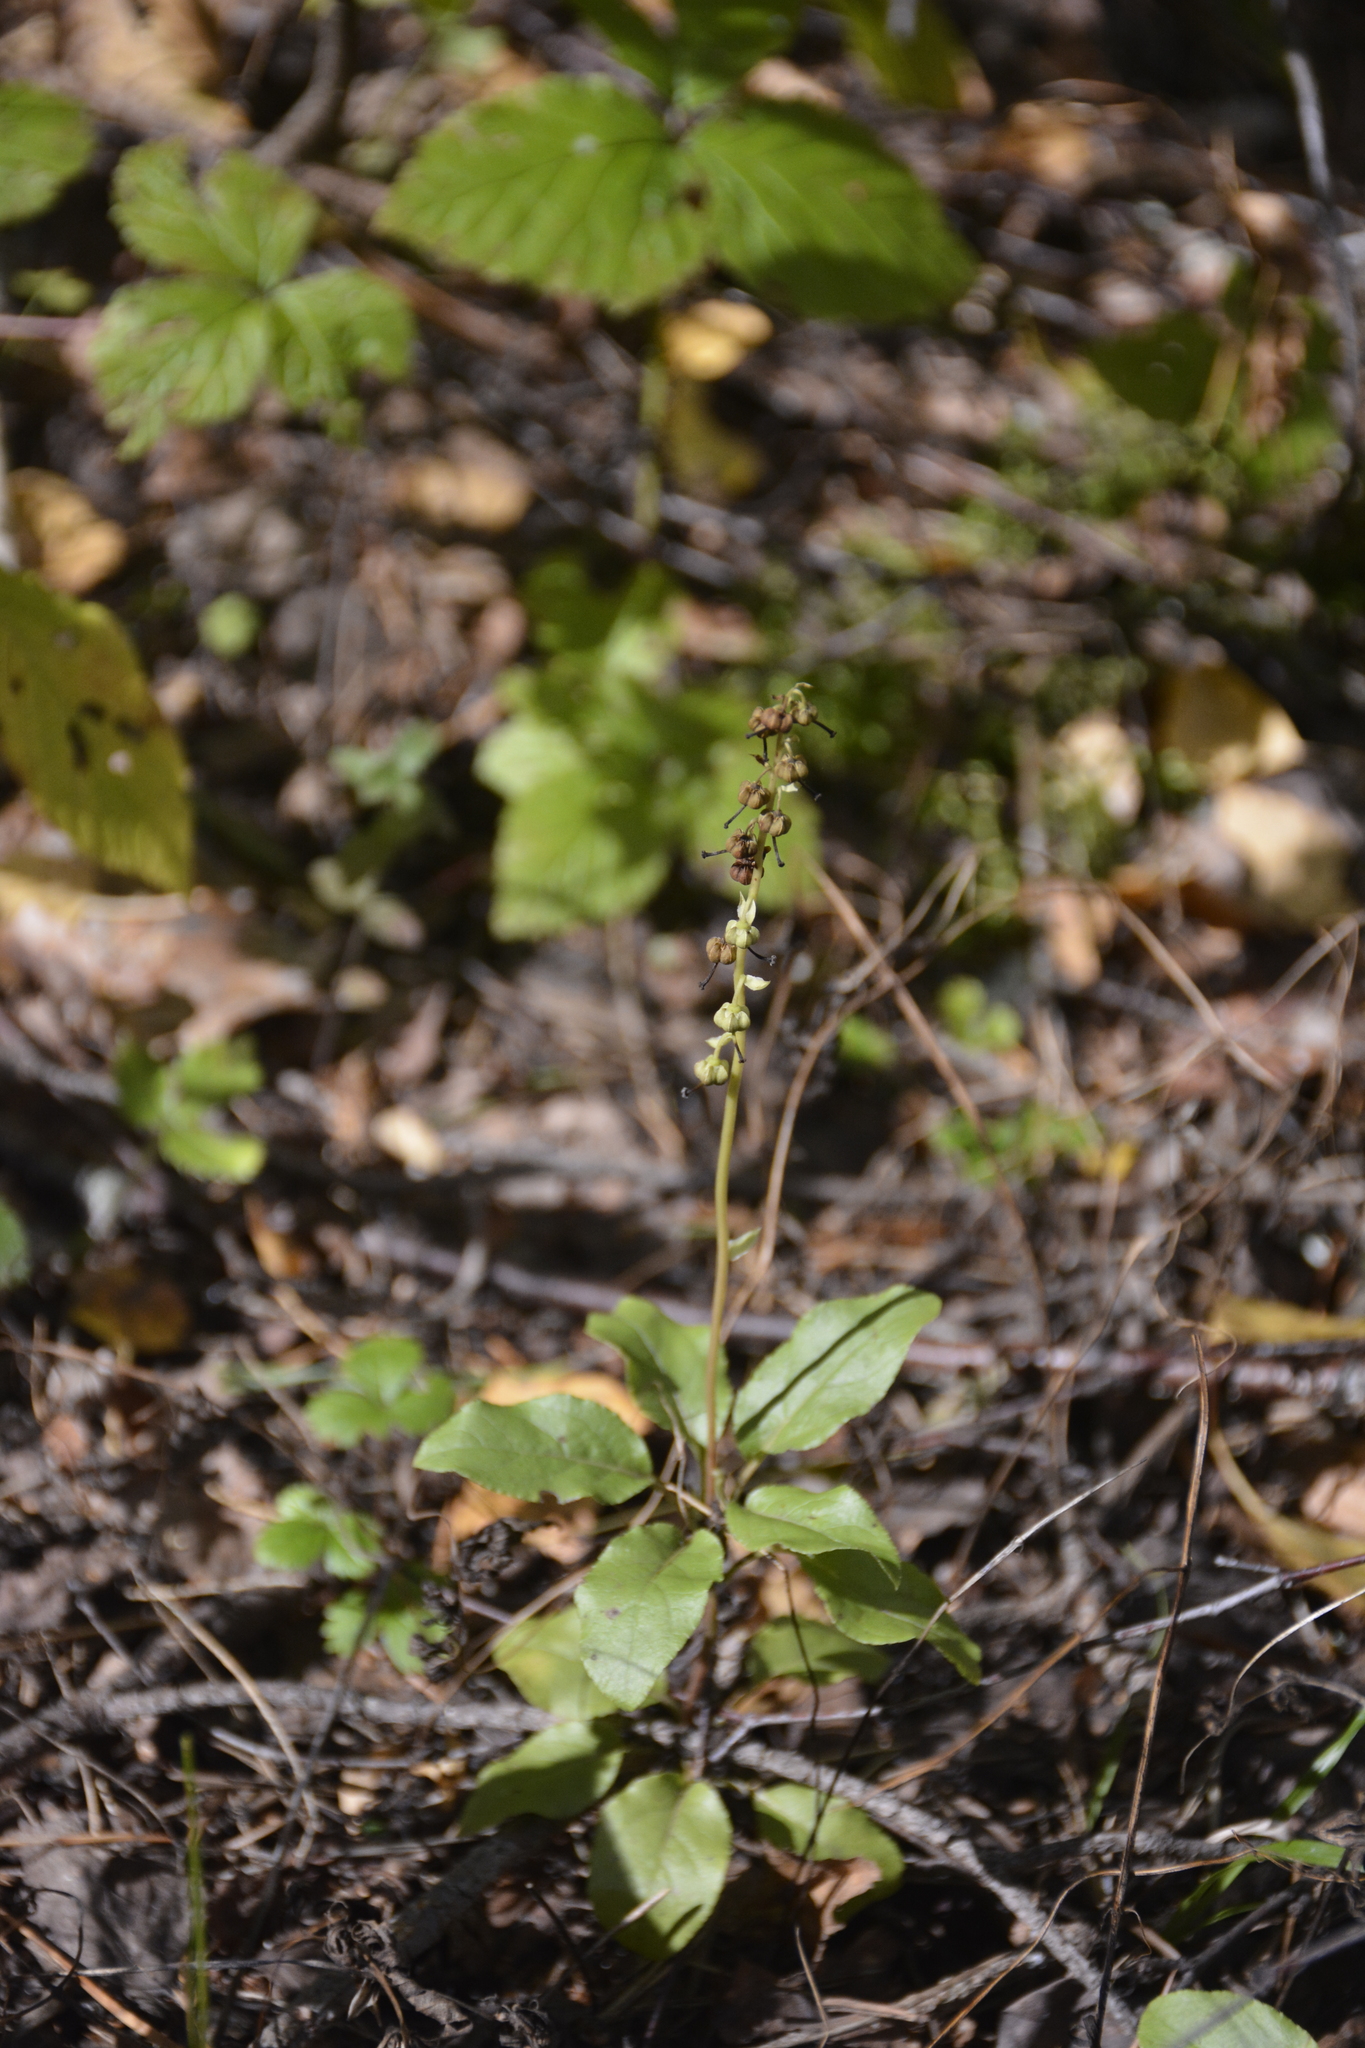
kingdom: Plantae
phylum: Tracheophyta
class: Magnoliopsida
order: Ericales
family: Ericaceae
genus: Orthilia
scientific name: Orthilia secunda
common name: One-sided orthilia
